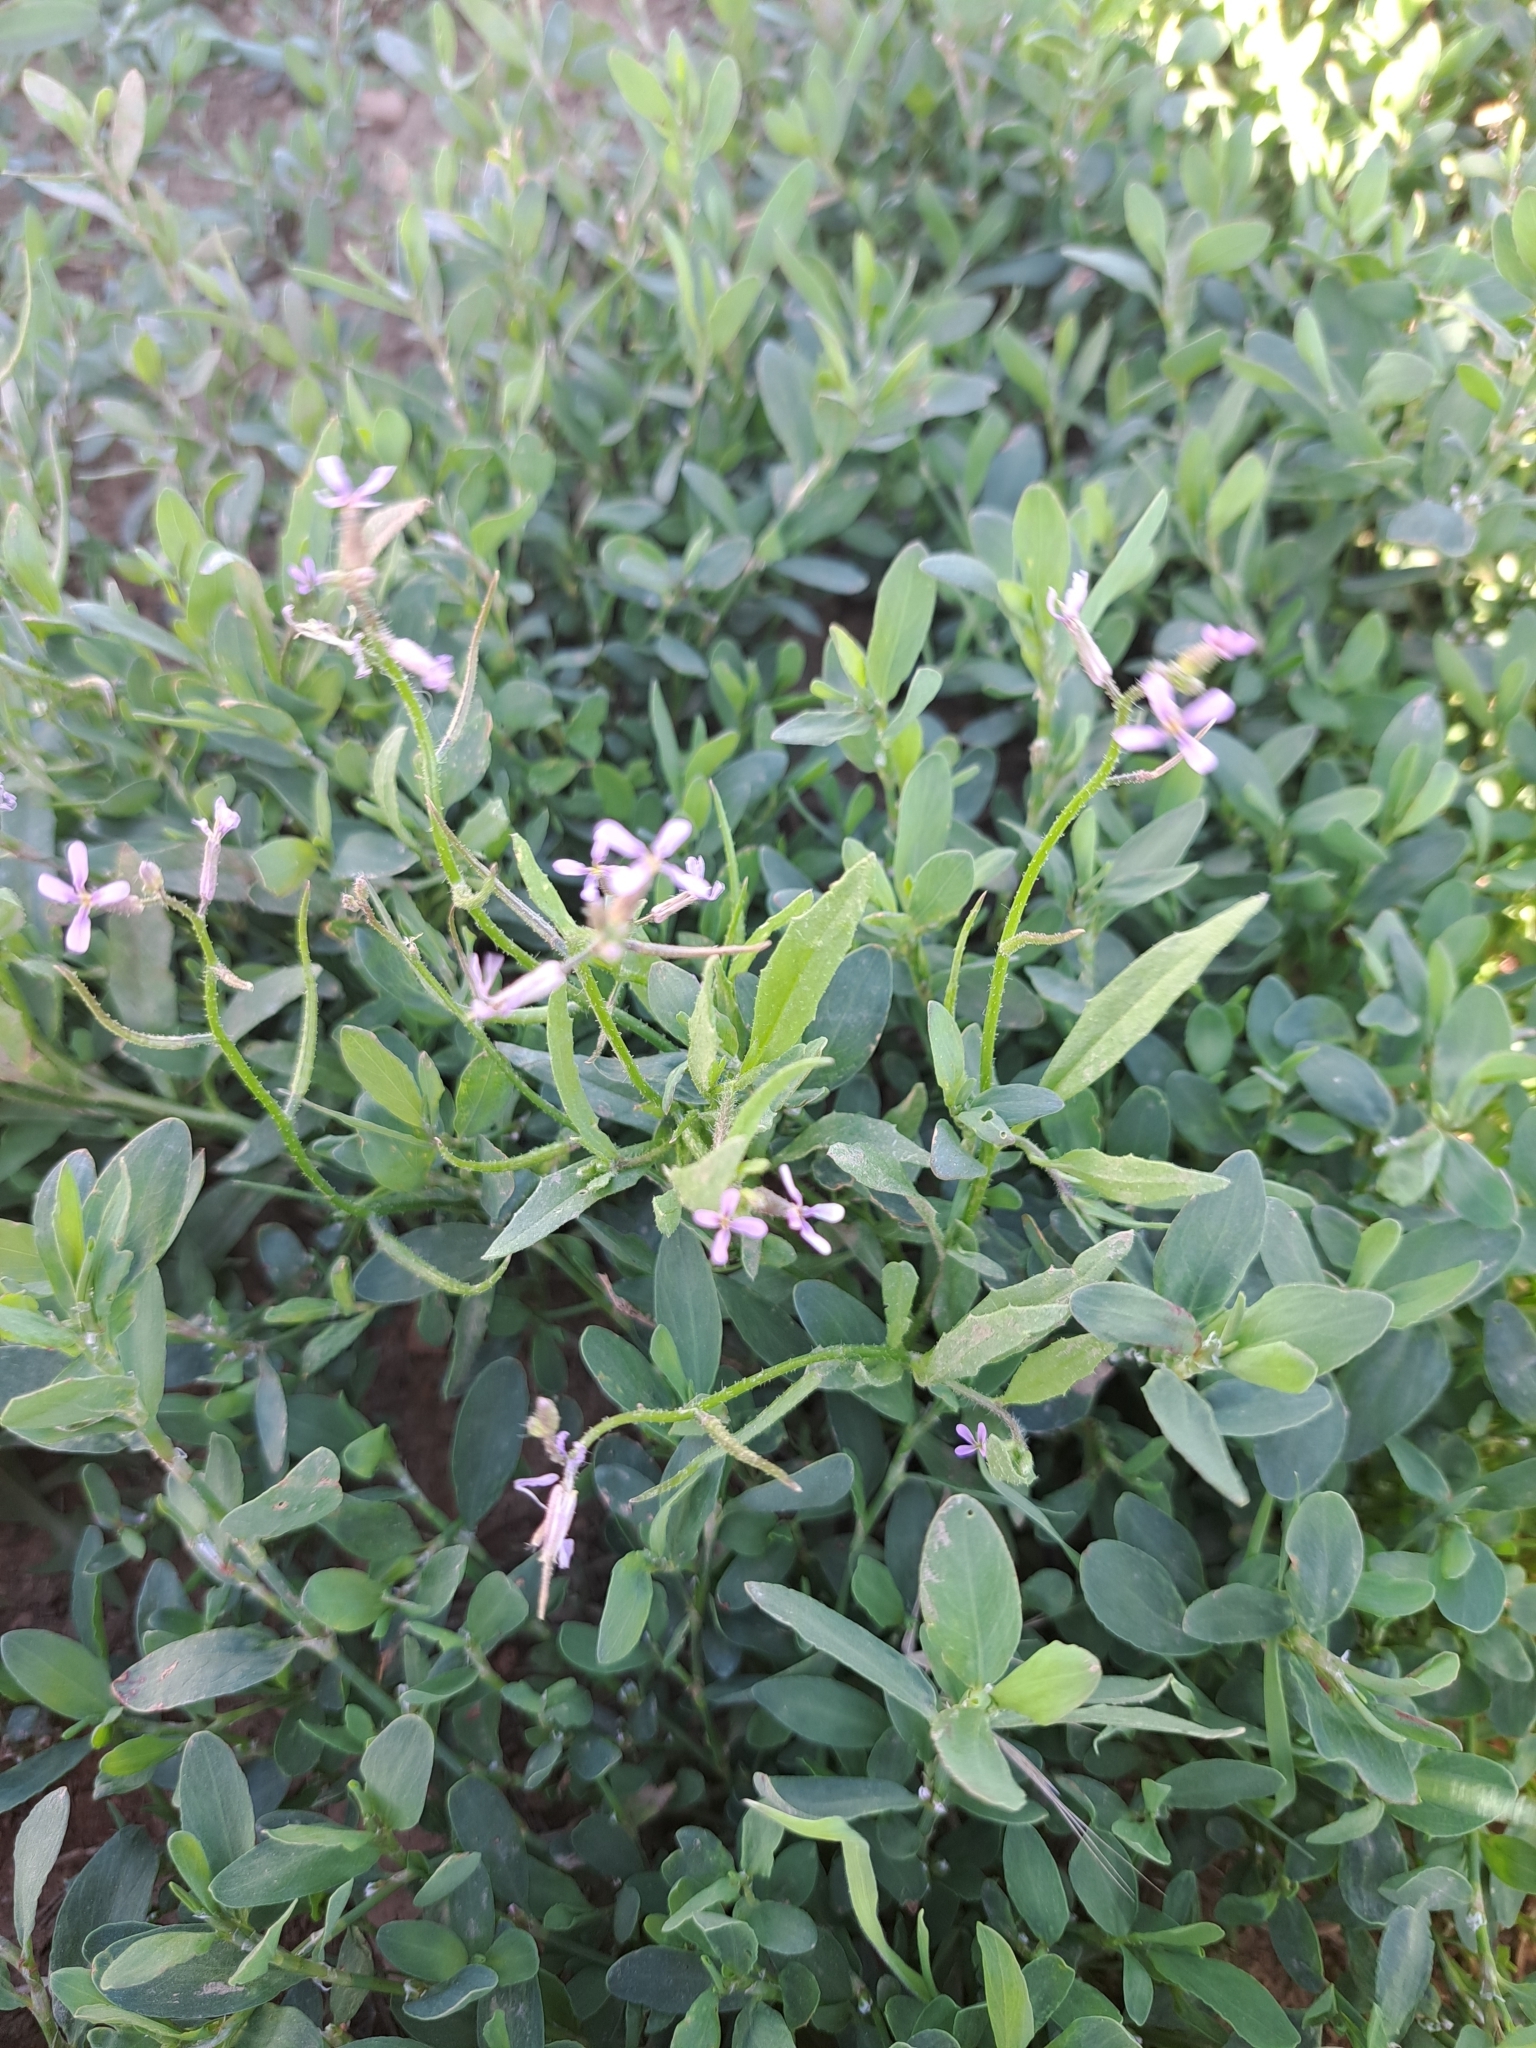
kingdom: Plantae
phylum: Tracheophyta
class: Magnoliopsida
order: Brassicales
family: Brassicaceae
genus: Chorispora
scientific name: Chorispora tenella
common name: Crossflower
